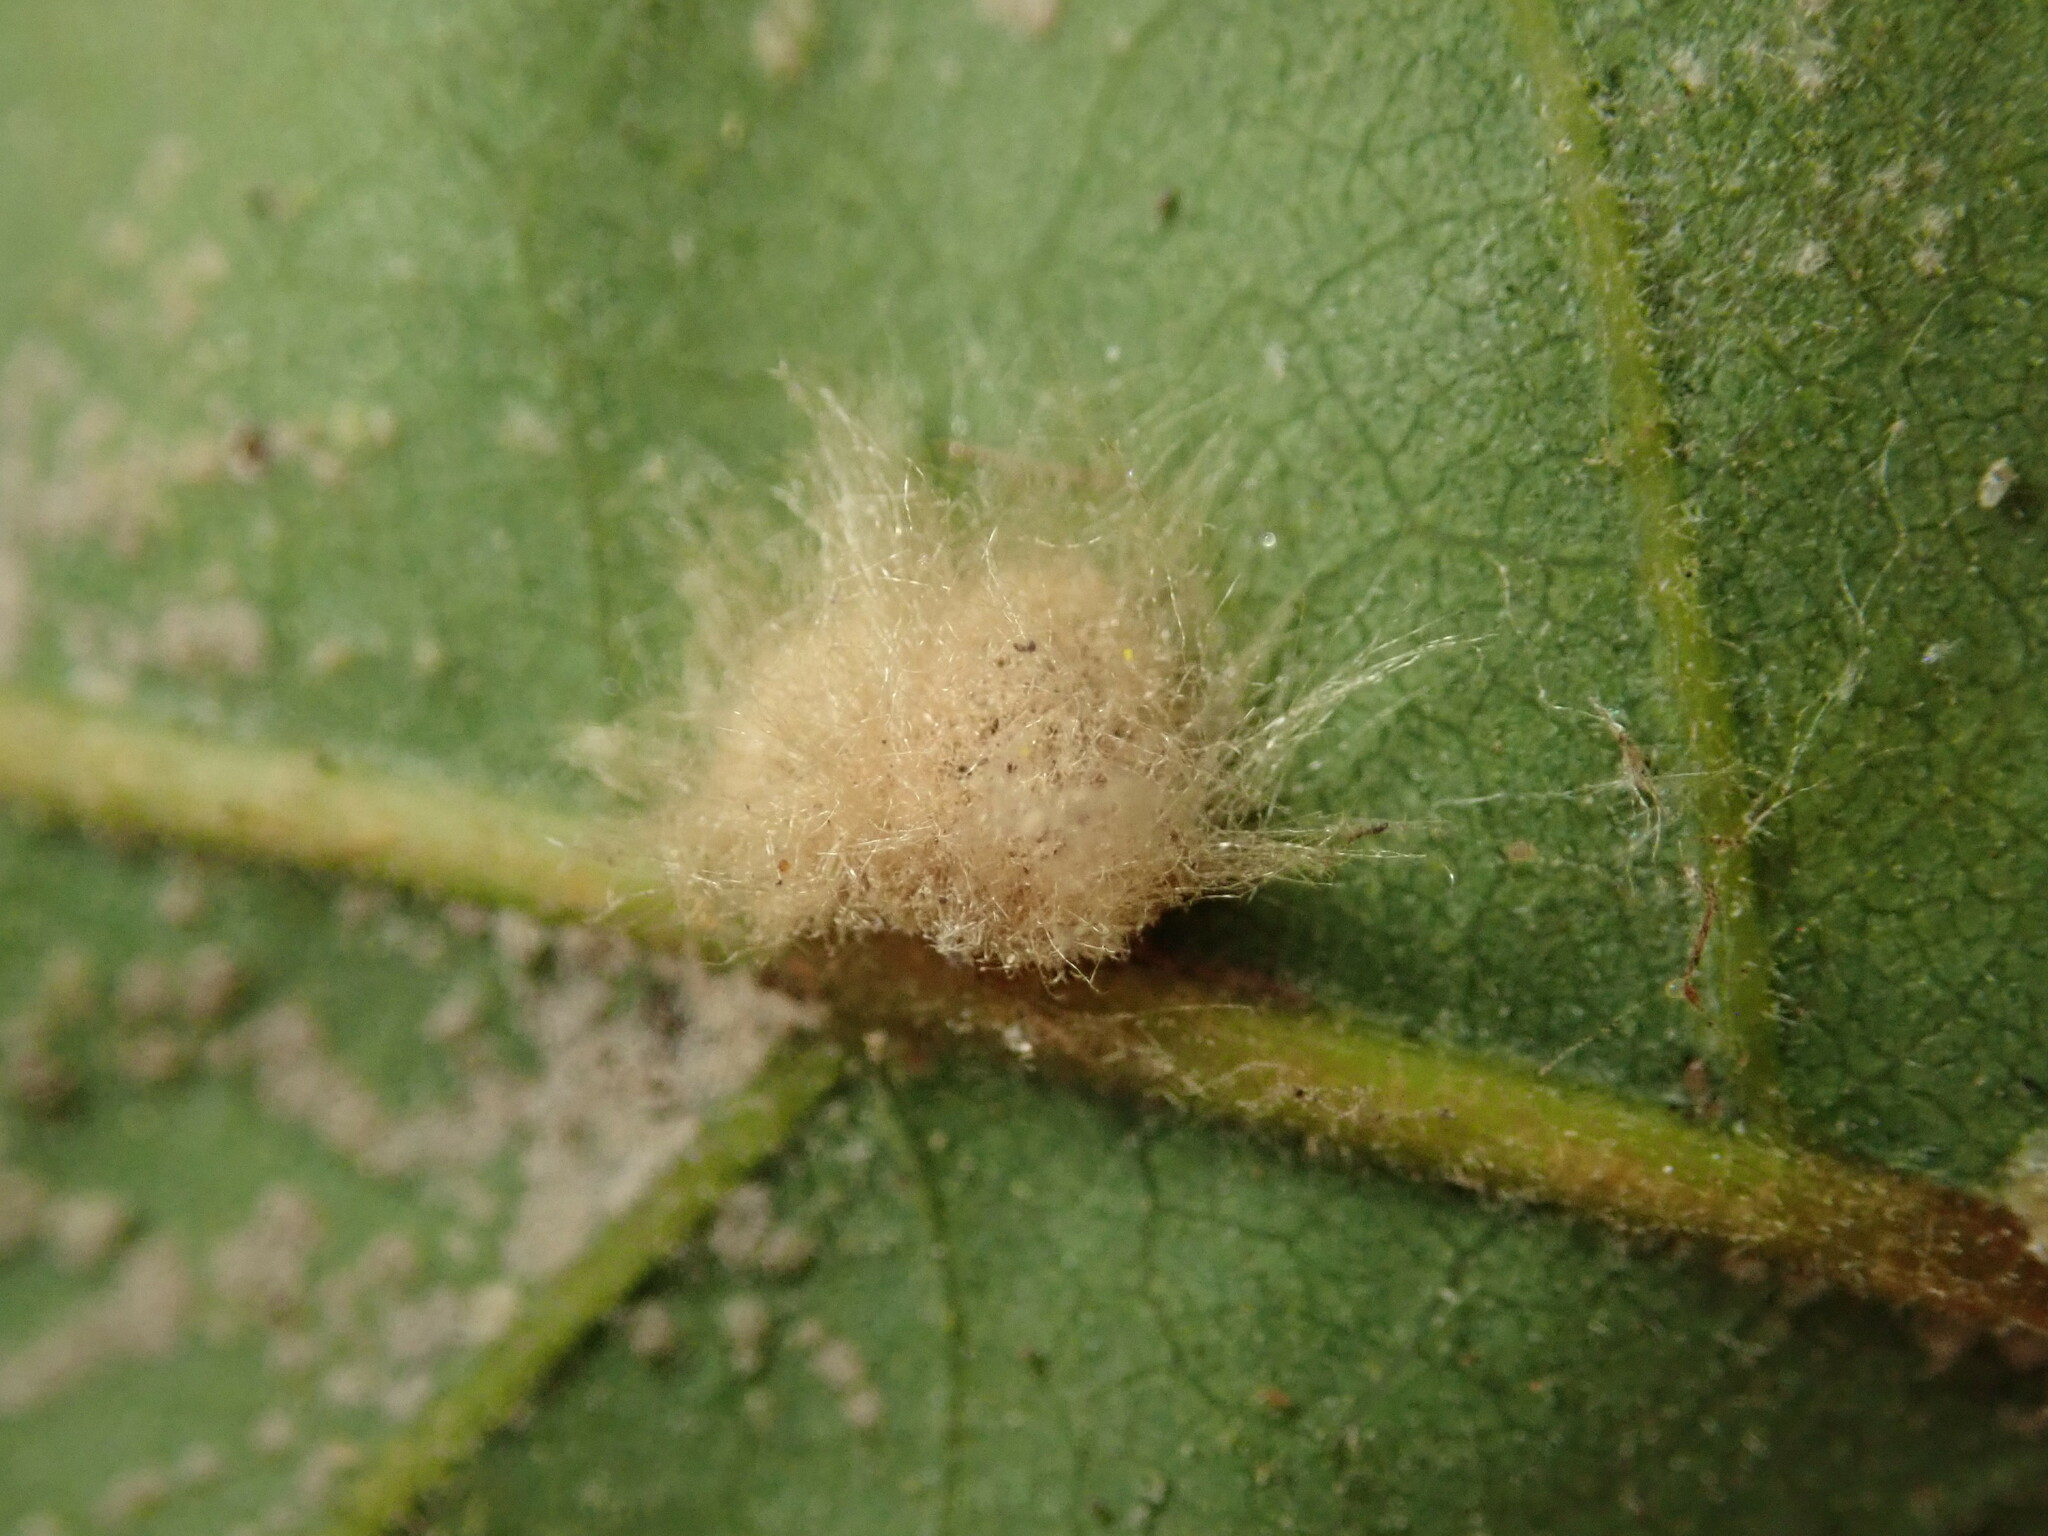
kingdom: Animalia
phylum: Arthropoda
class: Insecta
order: Hymenoptera
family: Cynipidae
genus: Andricus
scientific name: Andricus Druon fullawayi
